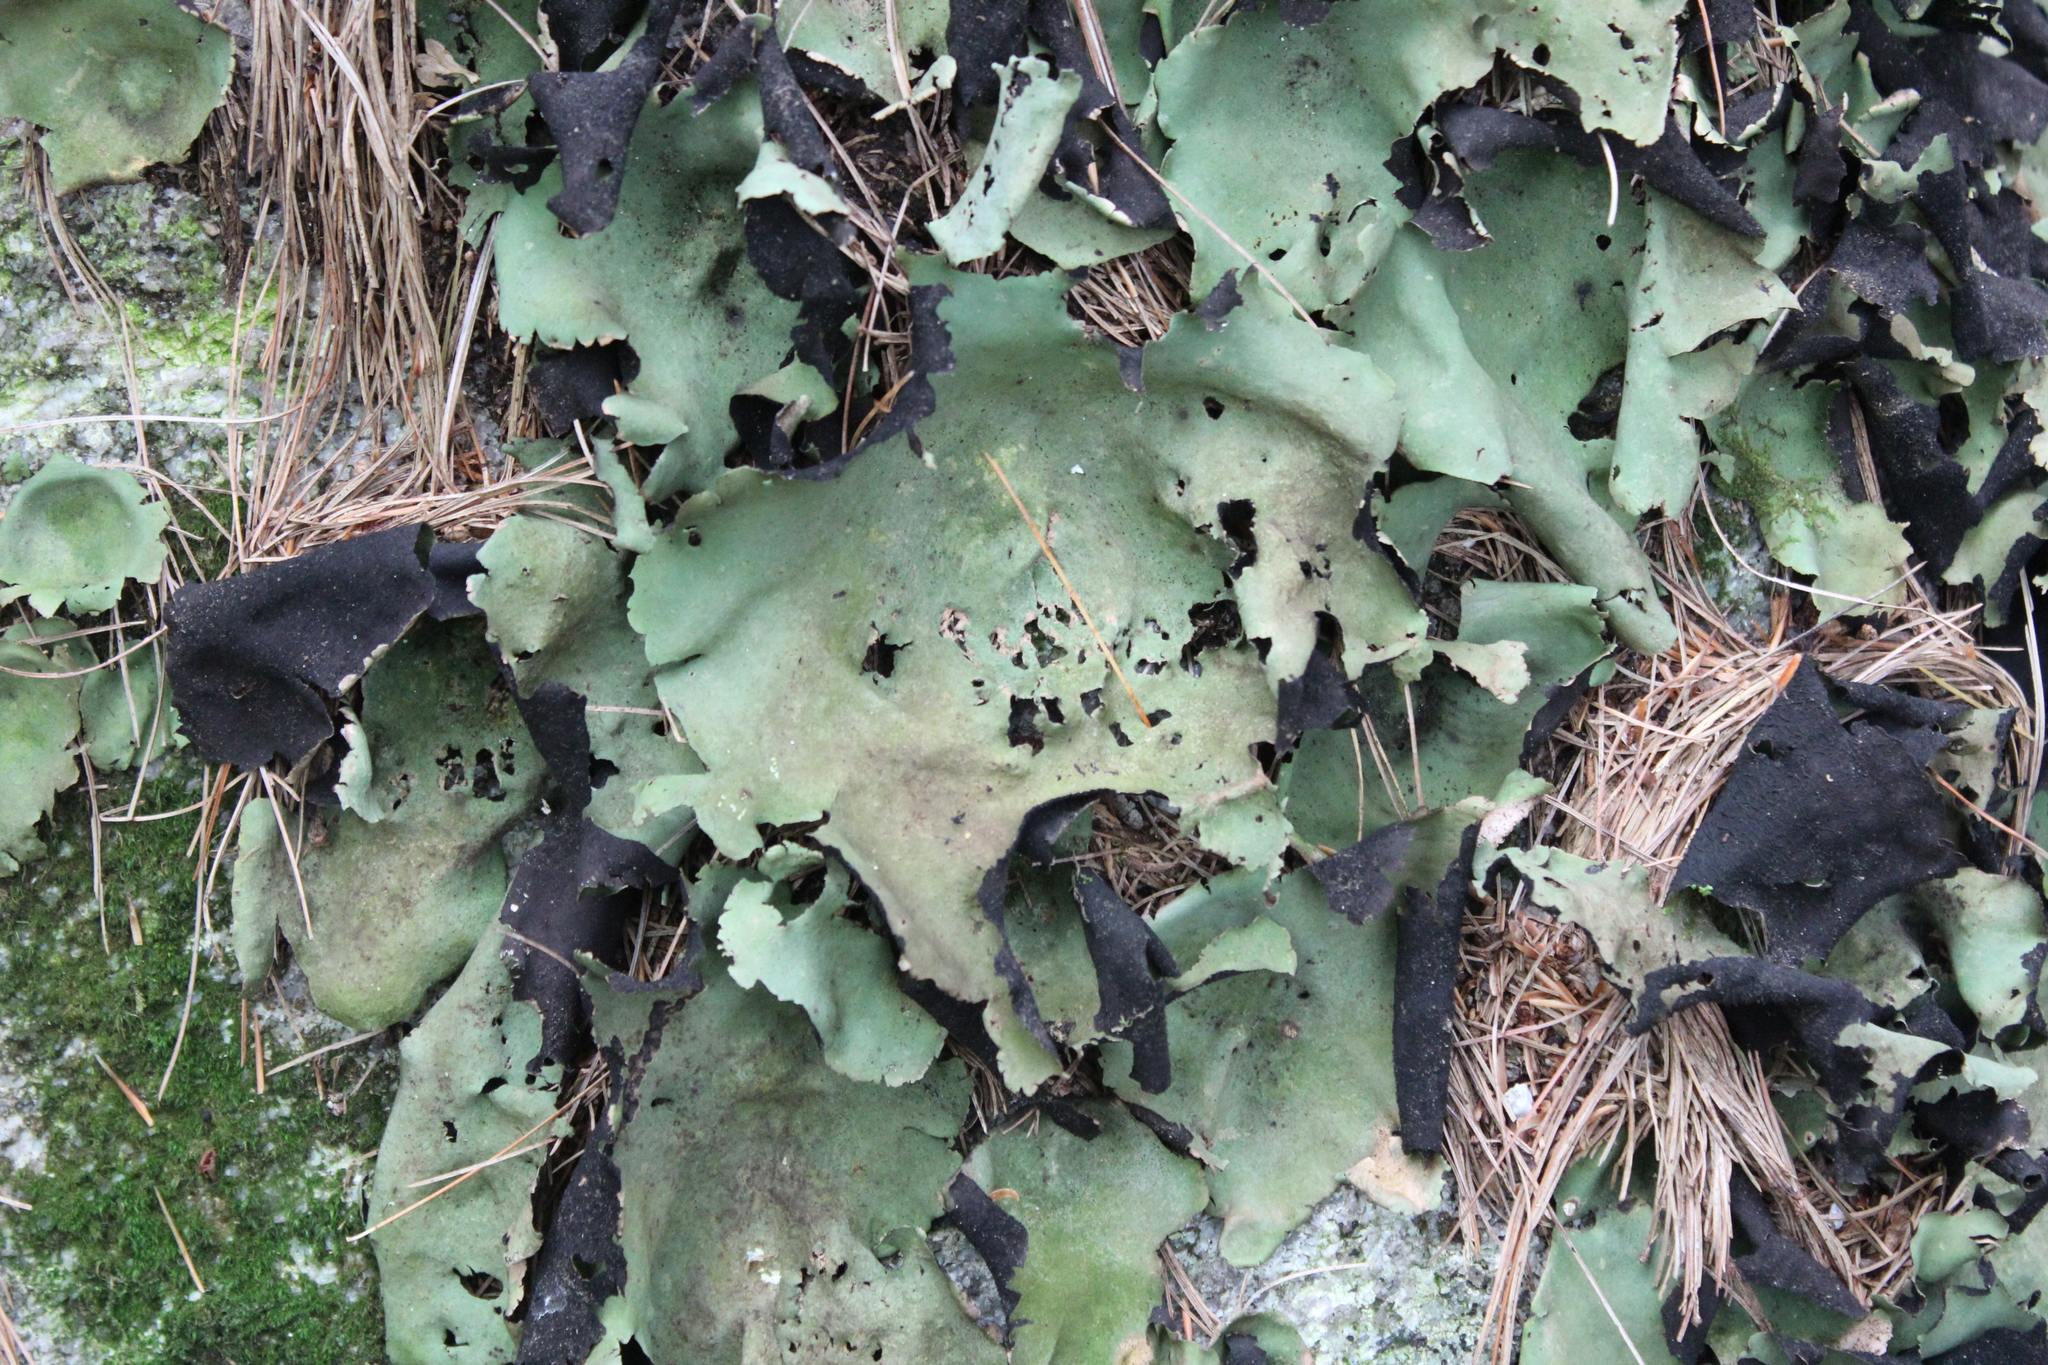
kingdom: Fungi
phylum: Ascomycota
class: Lecanoromycetes
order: Umbilicariales
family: Umbilicariaceae
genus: Umbilicaria
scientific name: Umbilicaria mammulata
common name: Smooth rock tripe
